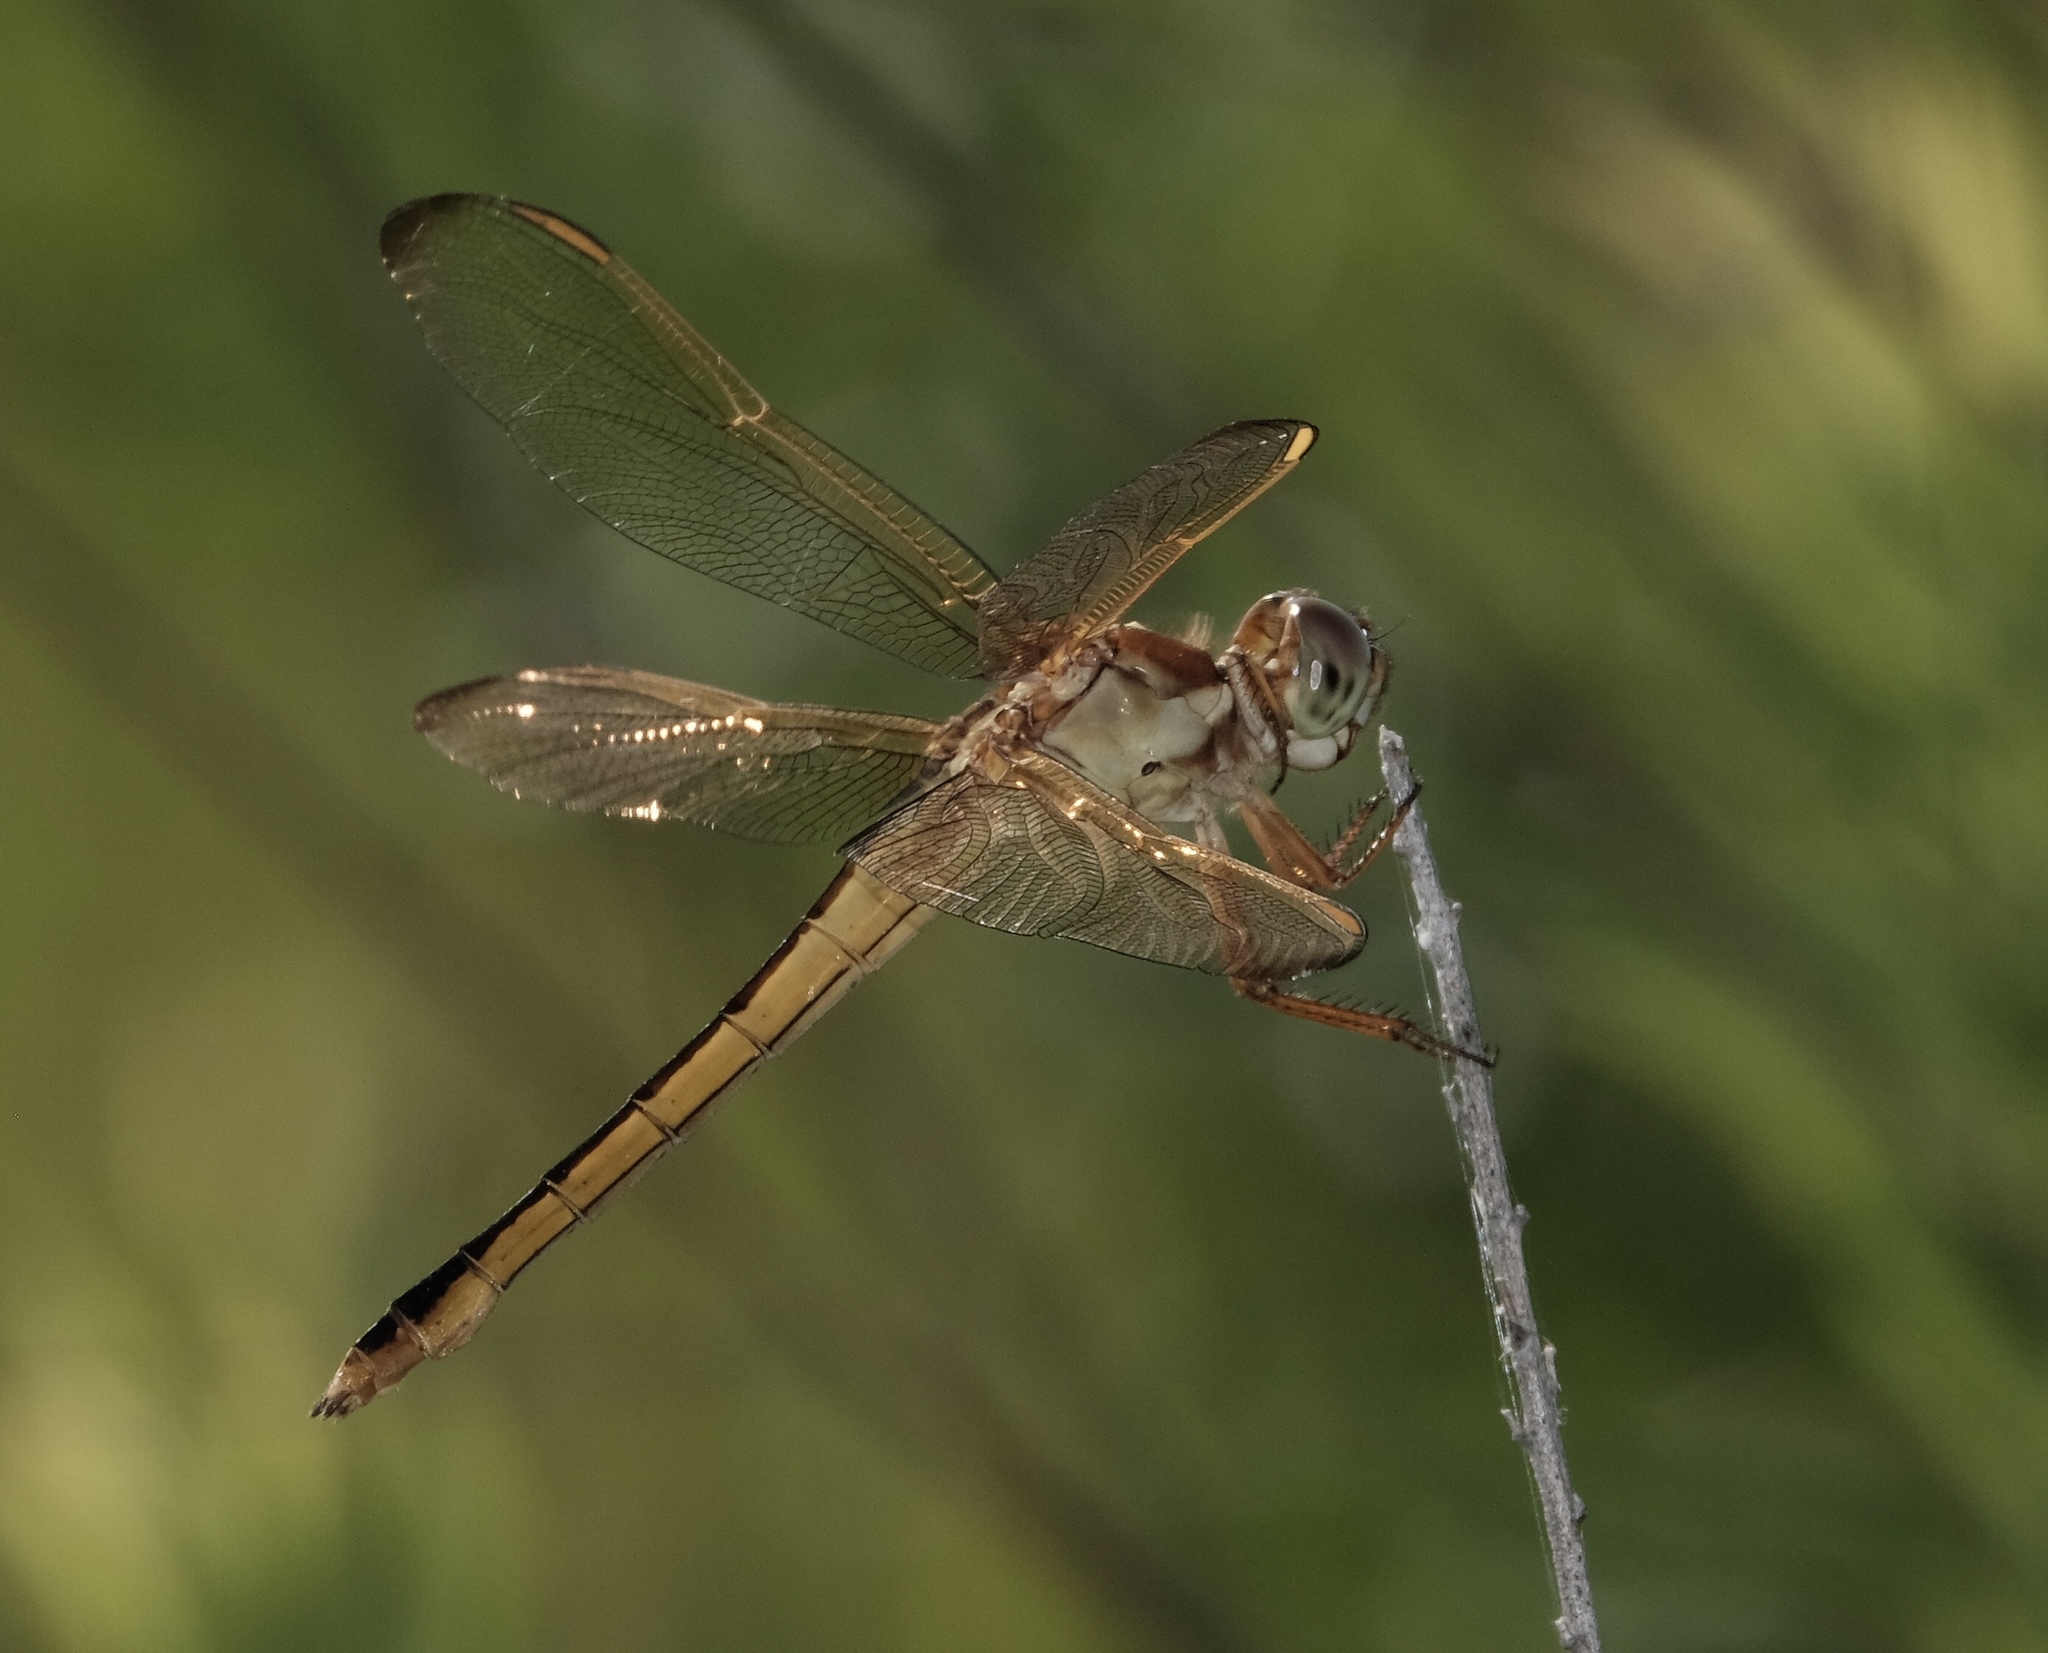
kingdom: Animalia
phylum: Arthropoda
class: Insecta
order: Odonata
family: Libellulidae
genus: Libellula
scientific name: Libellula needhami
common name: Needham's skimmer
